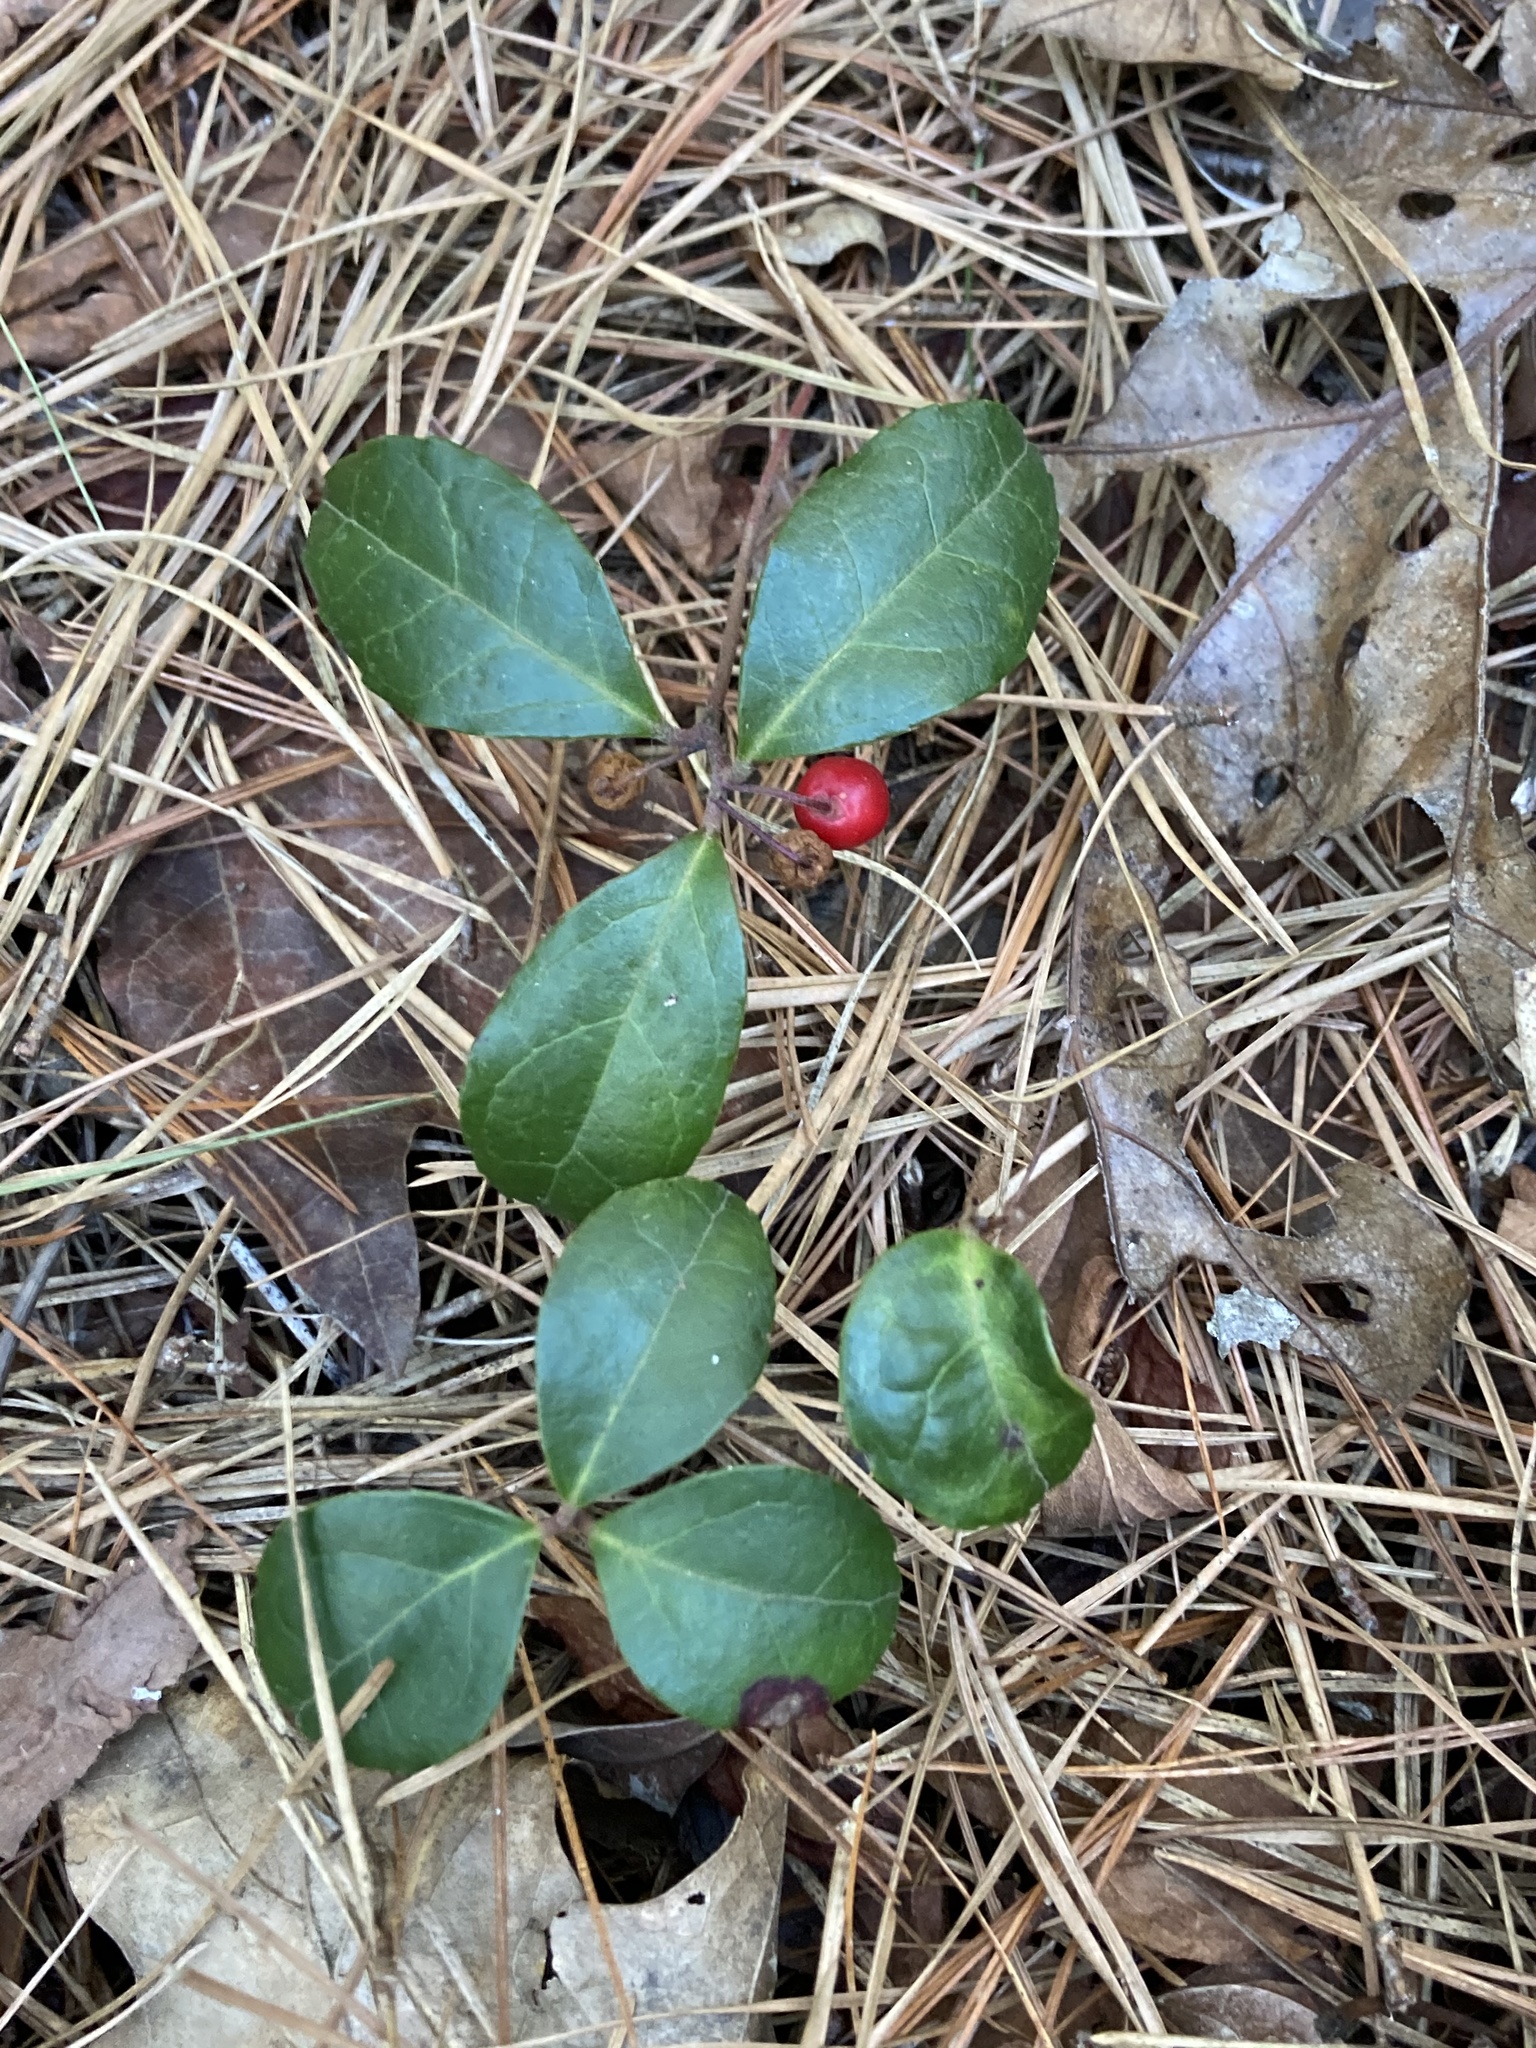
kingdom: Plantae
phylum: Tracheophyta
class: Magnoliopsida
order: Ericales
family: Ericaceae
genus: Gaultheria
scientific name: Gaultheria procumbens
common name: Checkerberry
